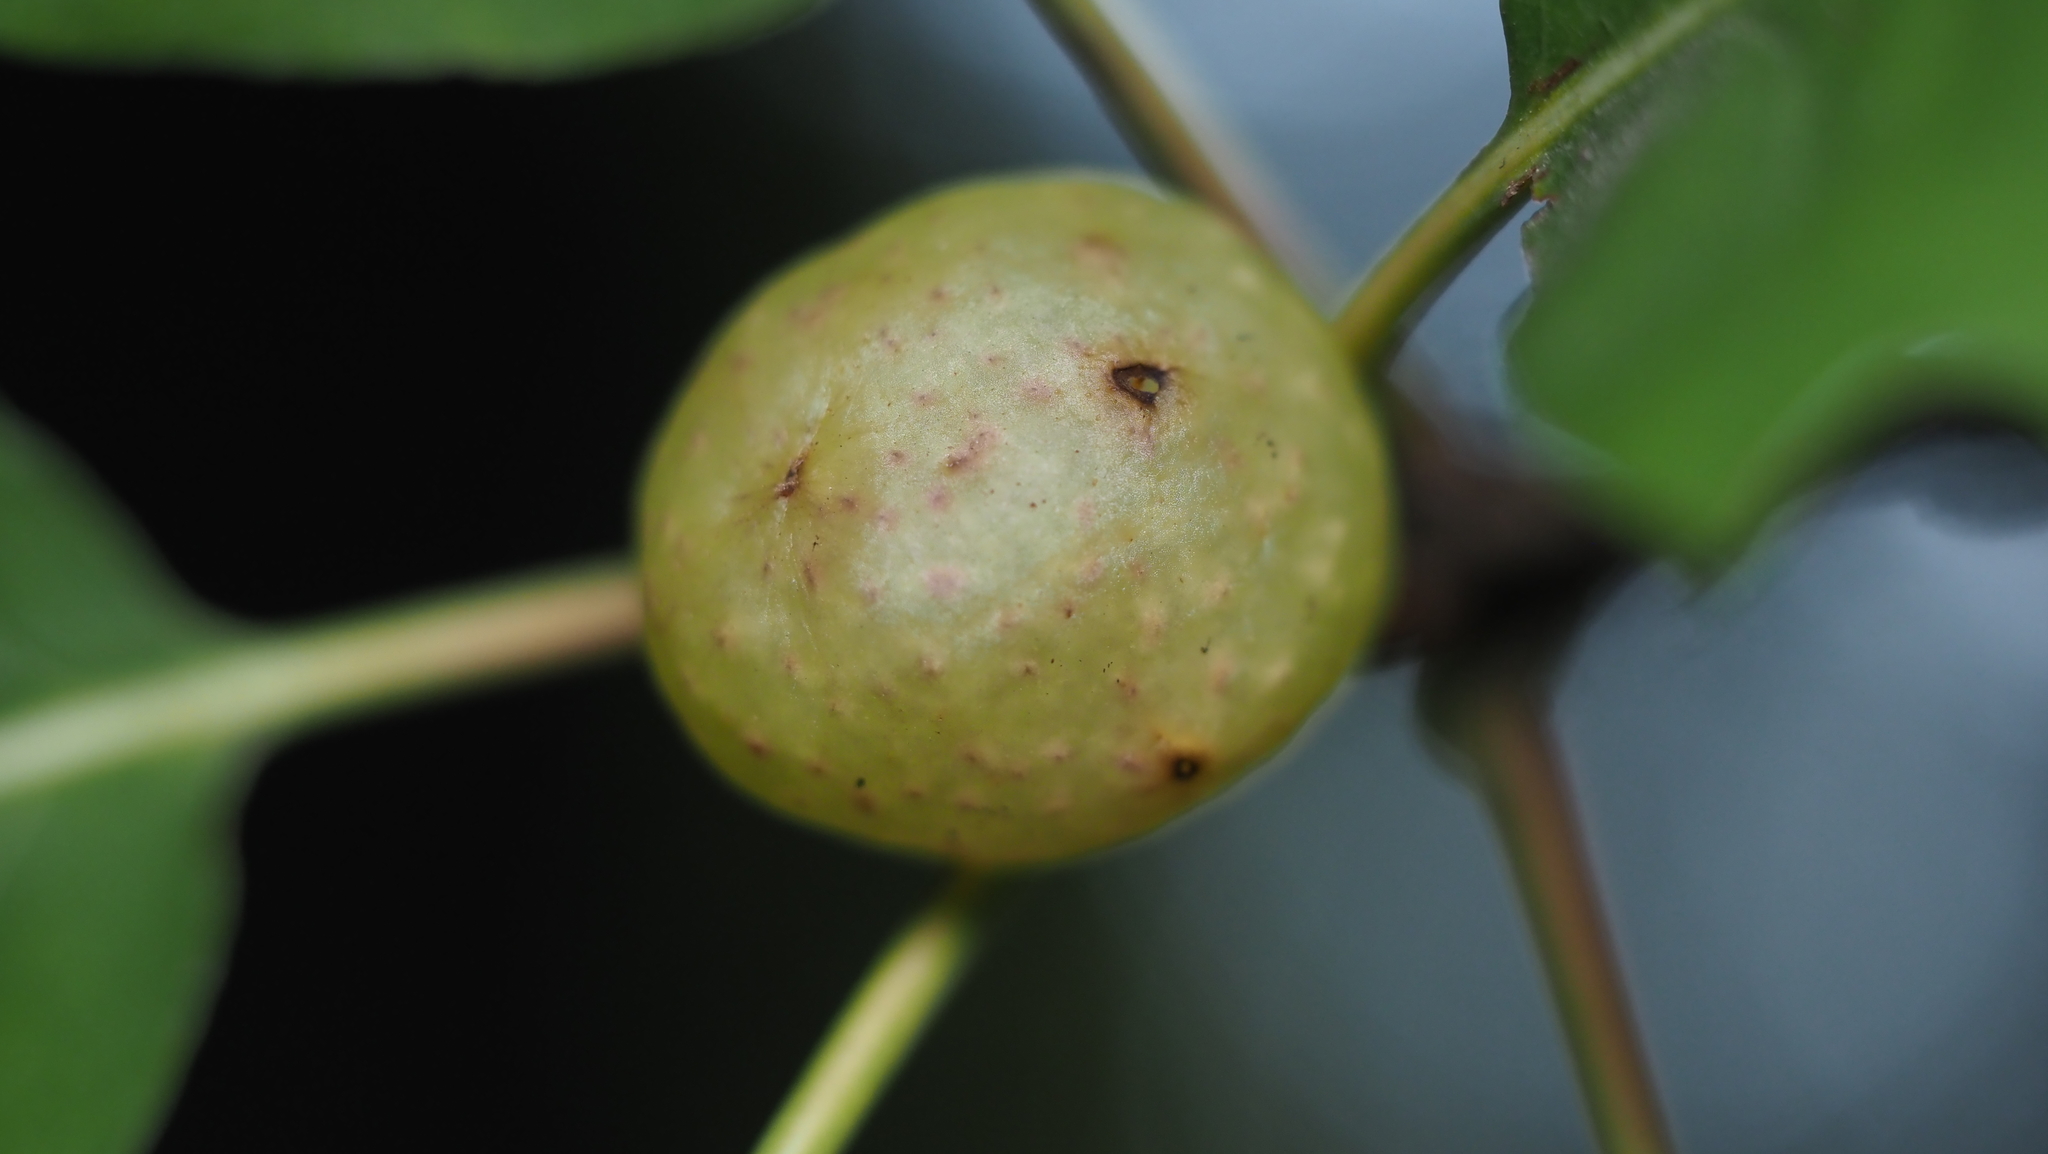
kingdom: Animalia
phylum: Arthropoda
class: Insecta
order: Hymenoptera
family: Cynipidae
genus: Amphibolips
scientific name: Amphibolips
